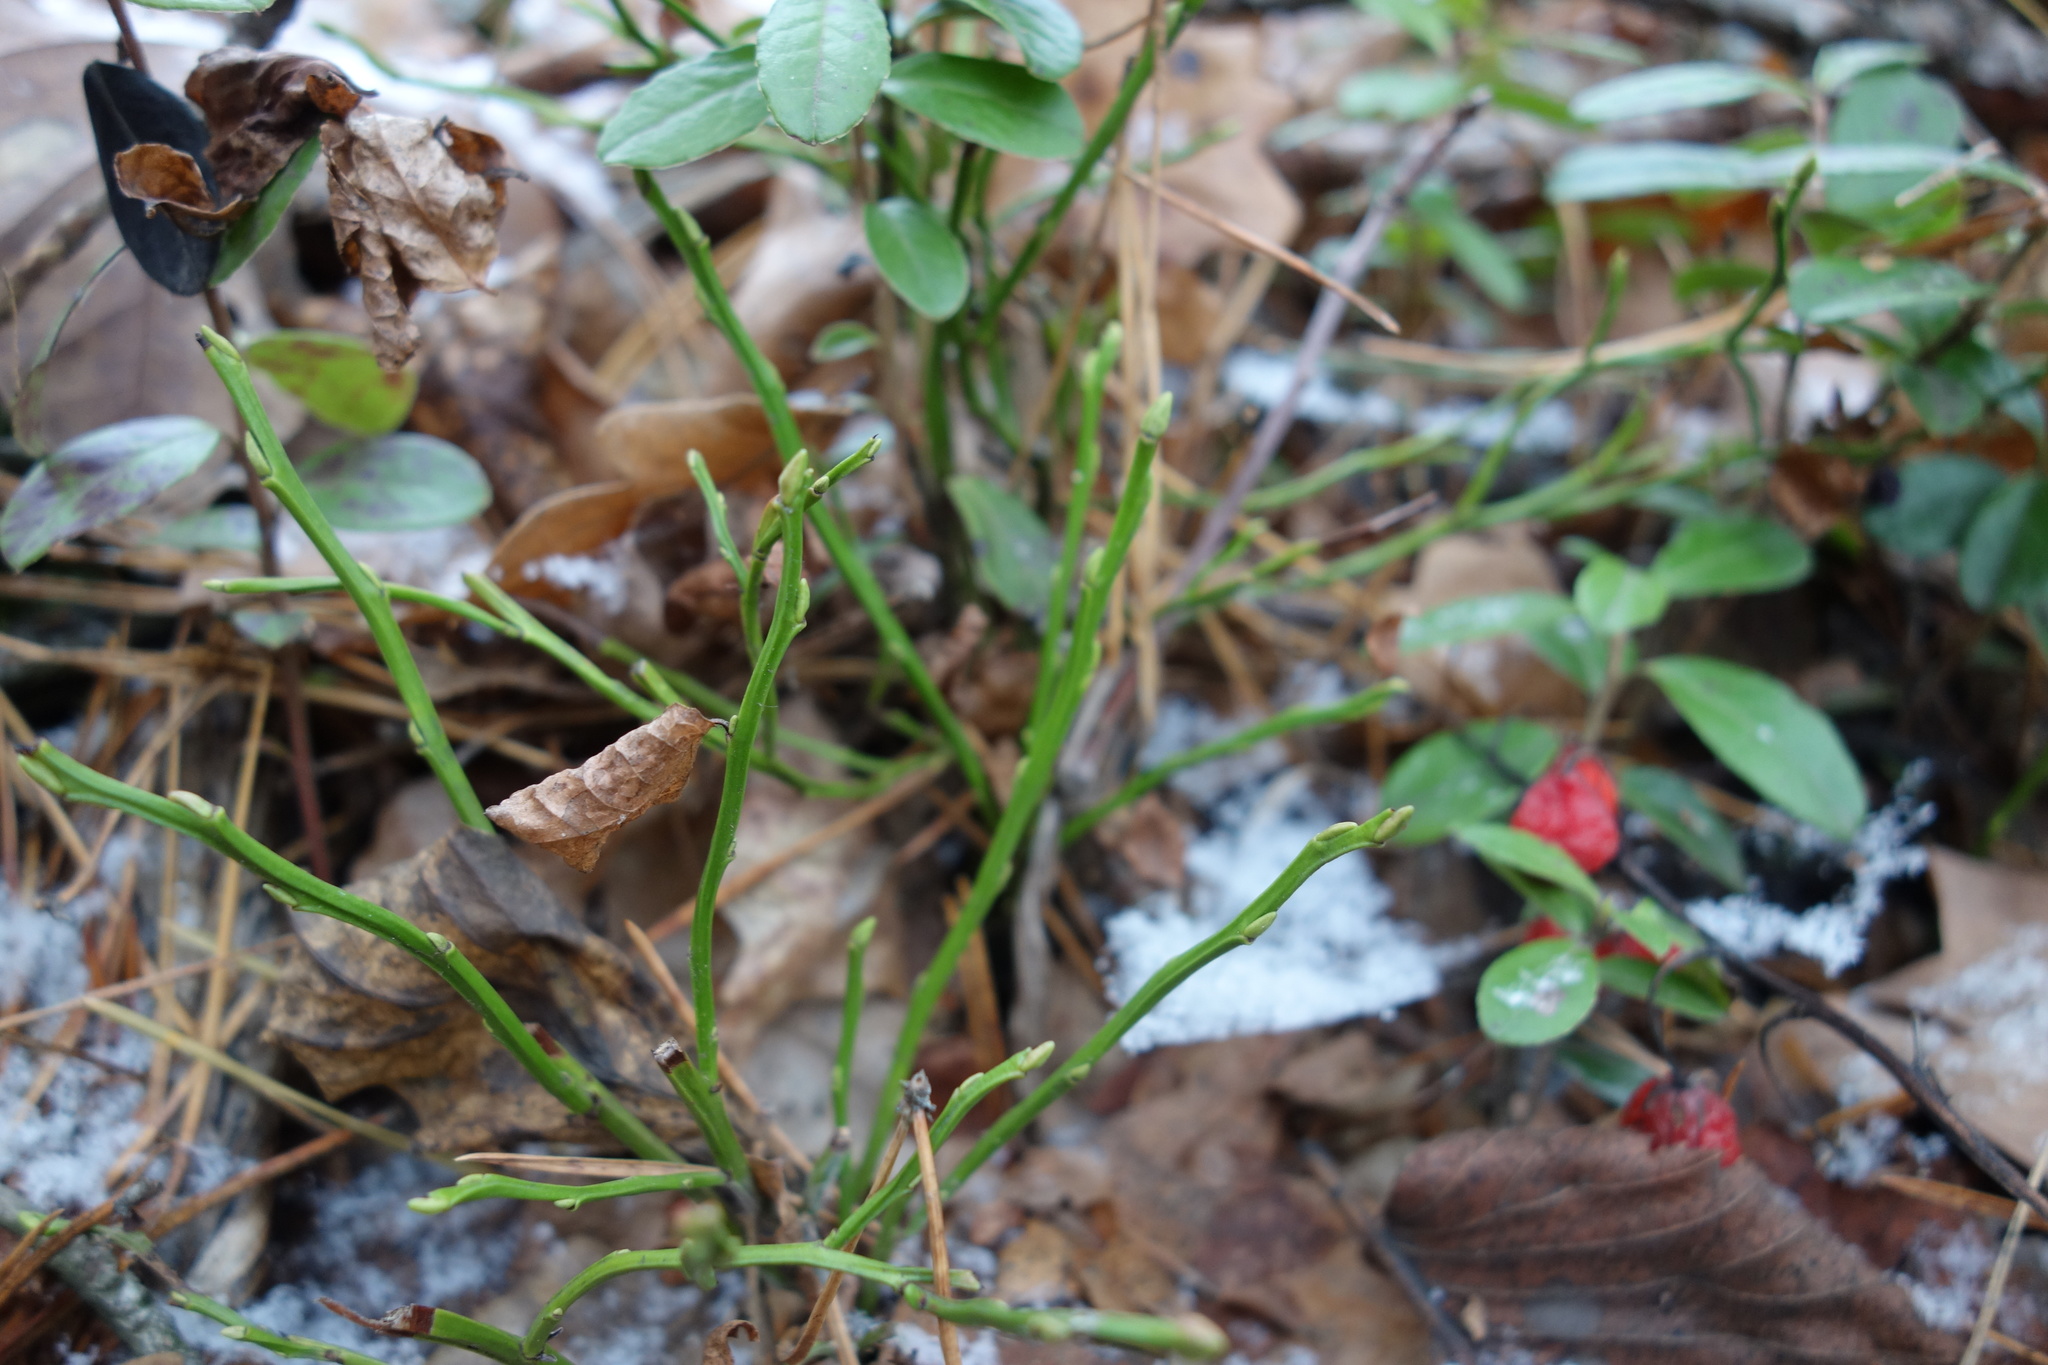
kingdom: Plantae
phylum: Tracheophyta
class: Magnoliopsida
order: Ericales
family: Ericaceae
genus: Vaccinium
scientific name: Vaccinium myrtillus
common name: Bilberry
